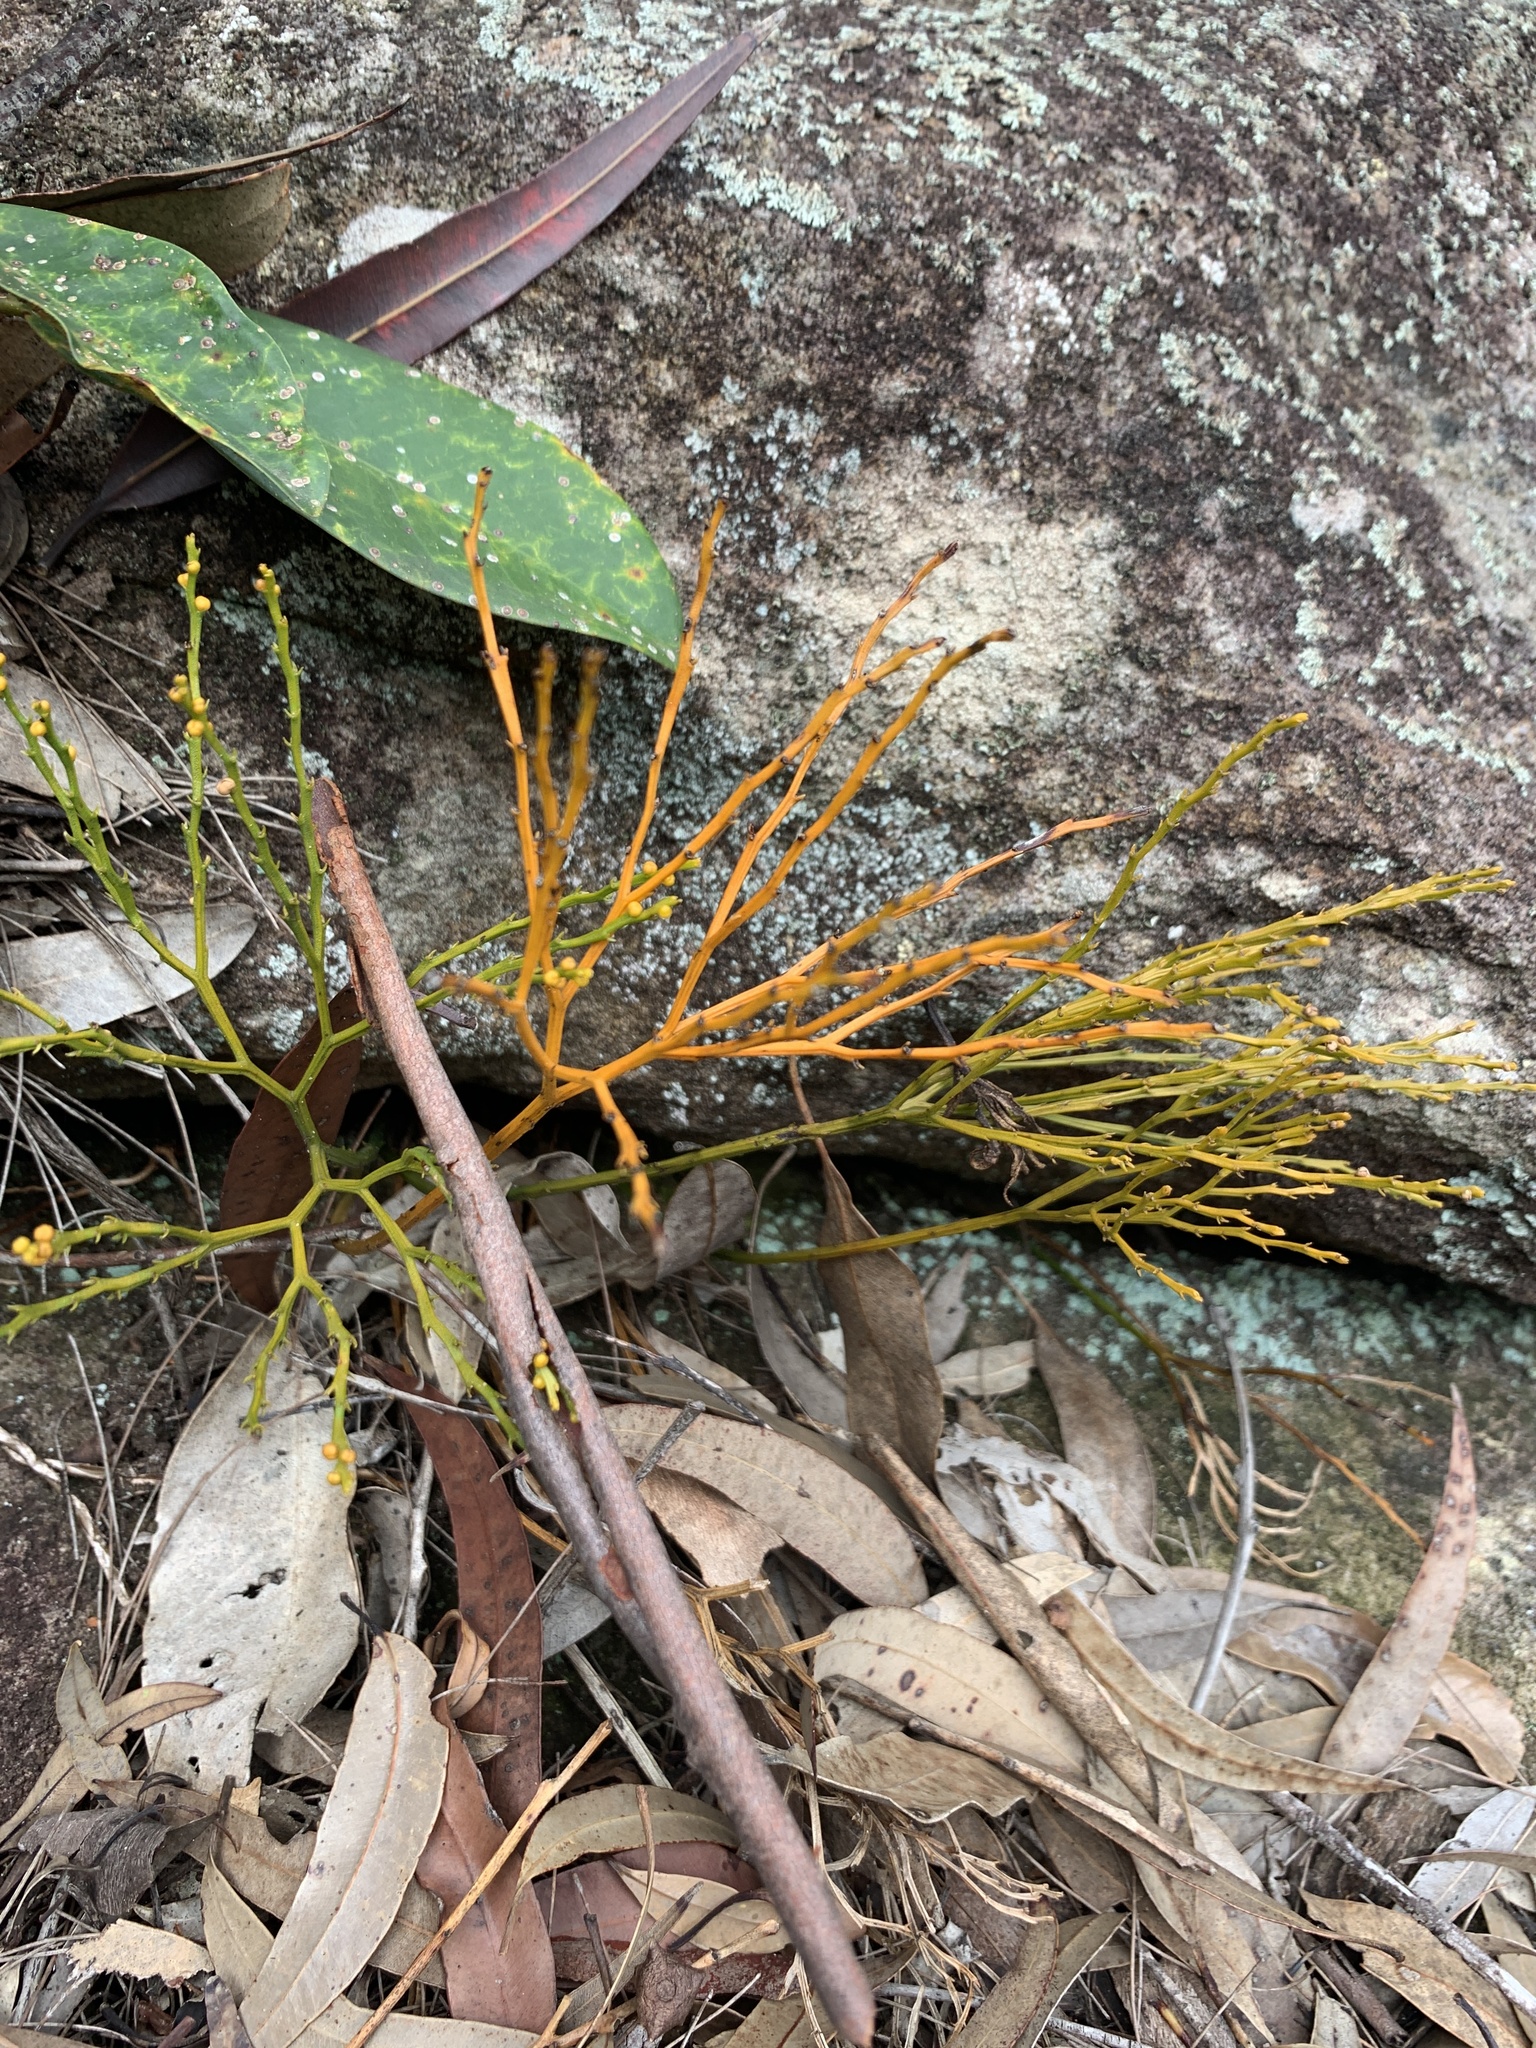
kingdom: Plantae
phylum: Tracheophyta
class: Polypodiopsida
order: Psilotales
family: Psilotaceae
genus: Psilotum
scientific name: Psilotum nudum
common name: Skeleton fork fern
